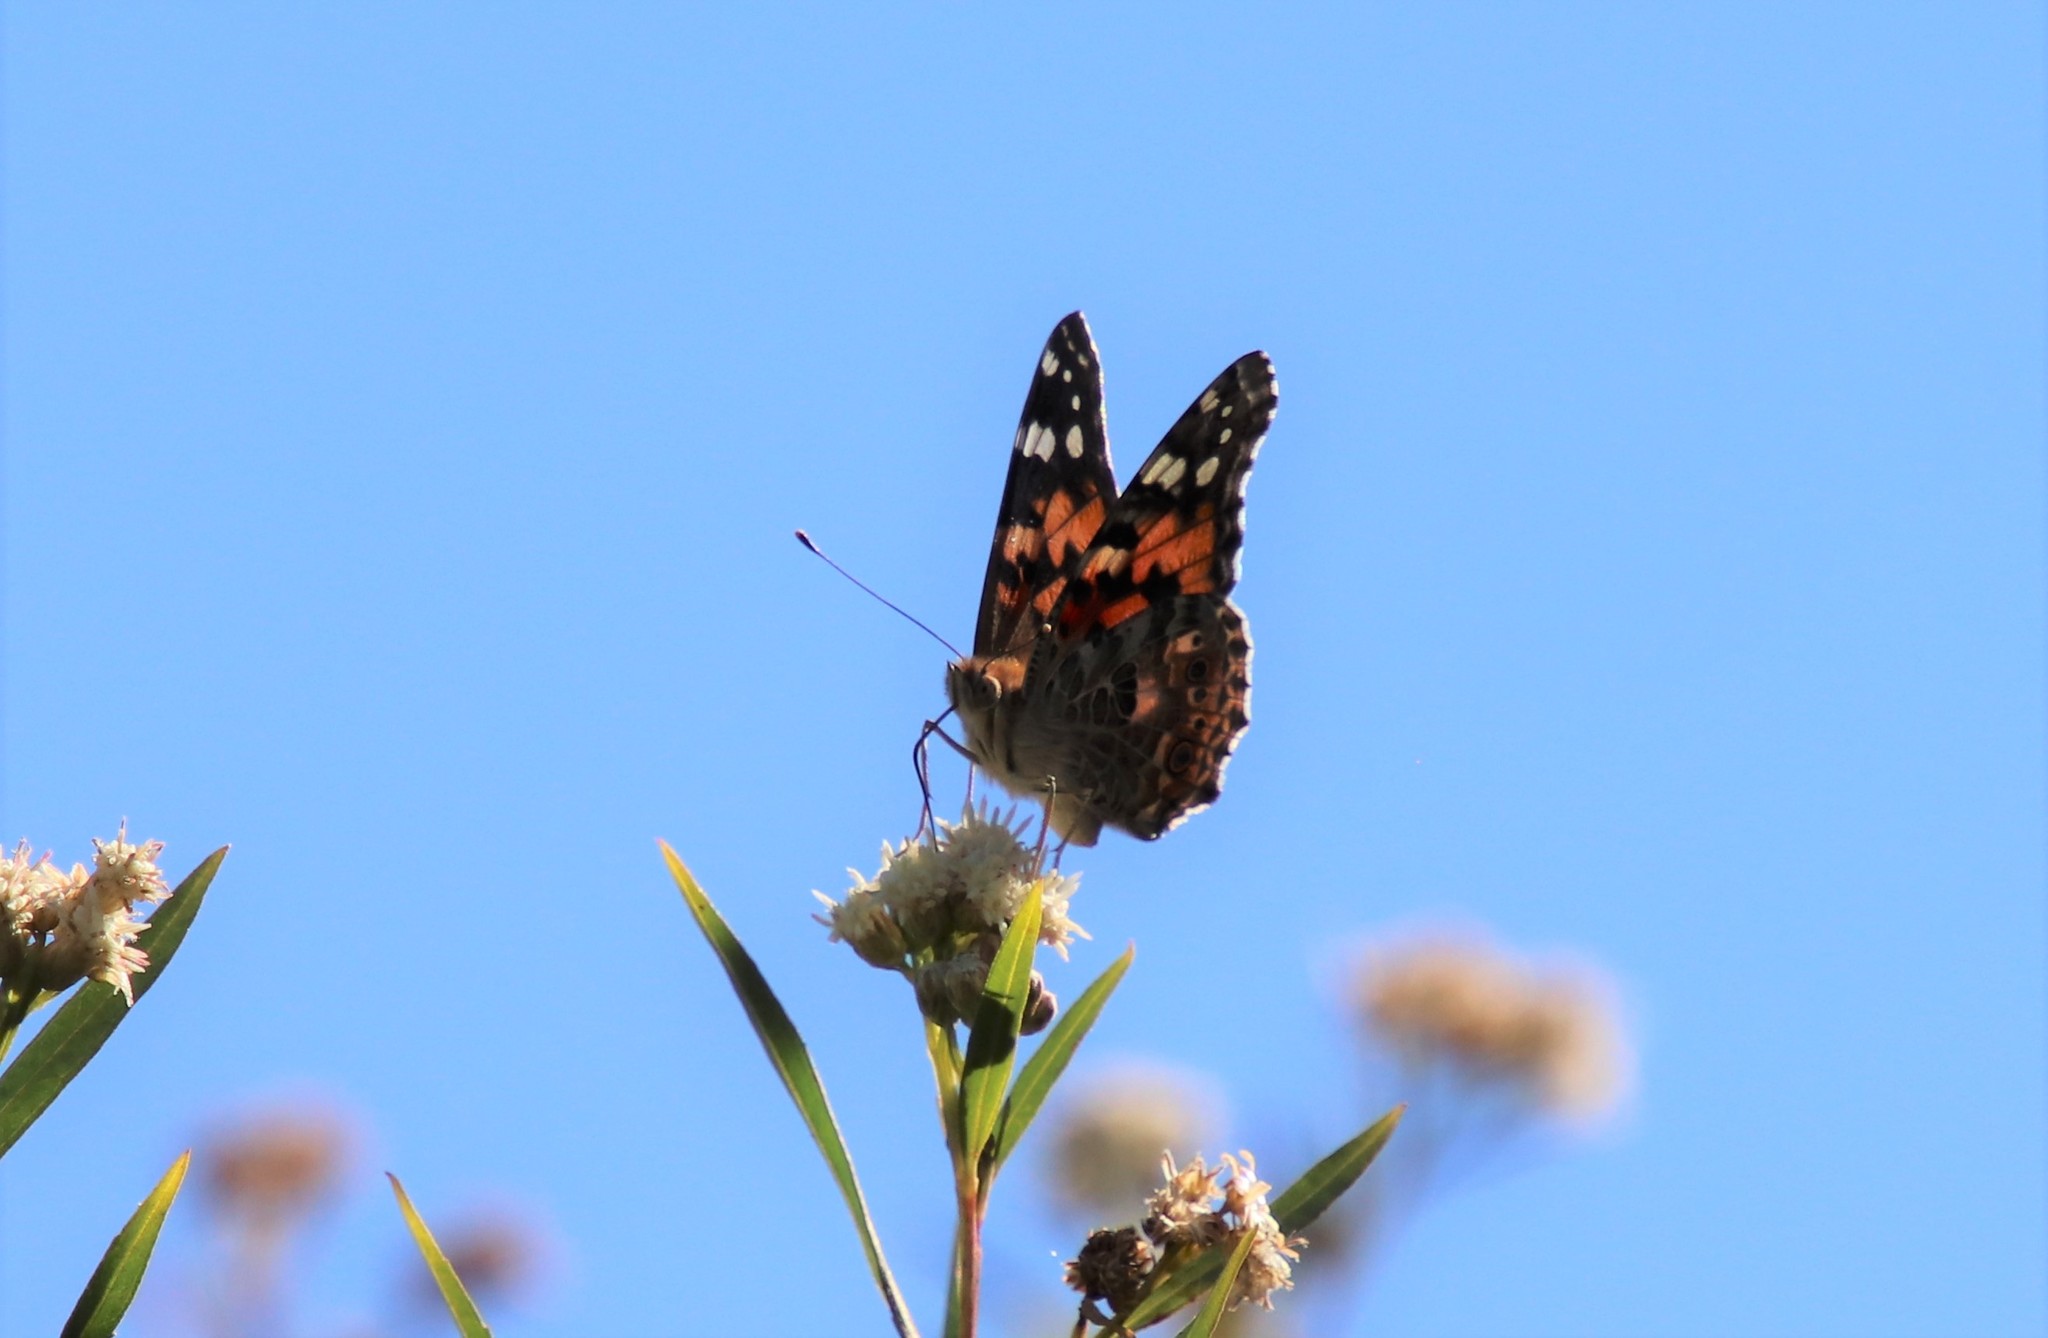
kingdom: Animalia
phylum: Arthropoda
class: Insecta
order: Lepidoptera
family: Nymphalidae
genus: Vanessa
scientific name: Vanessa cardui
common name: Painted lady
